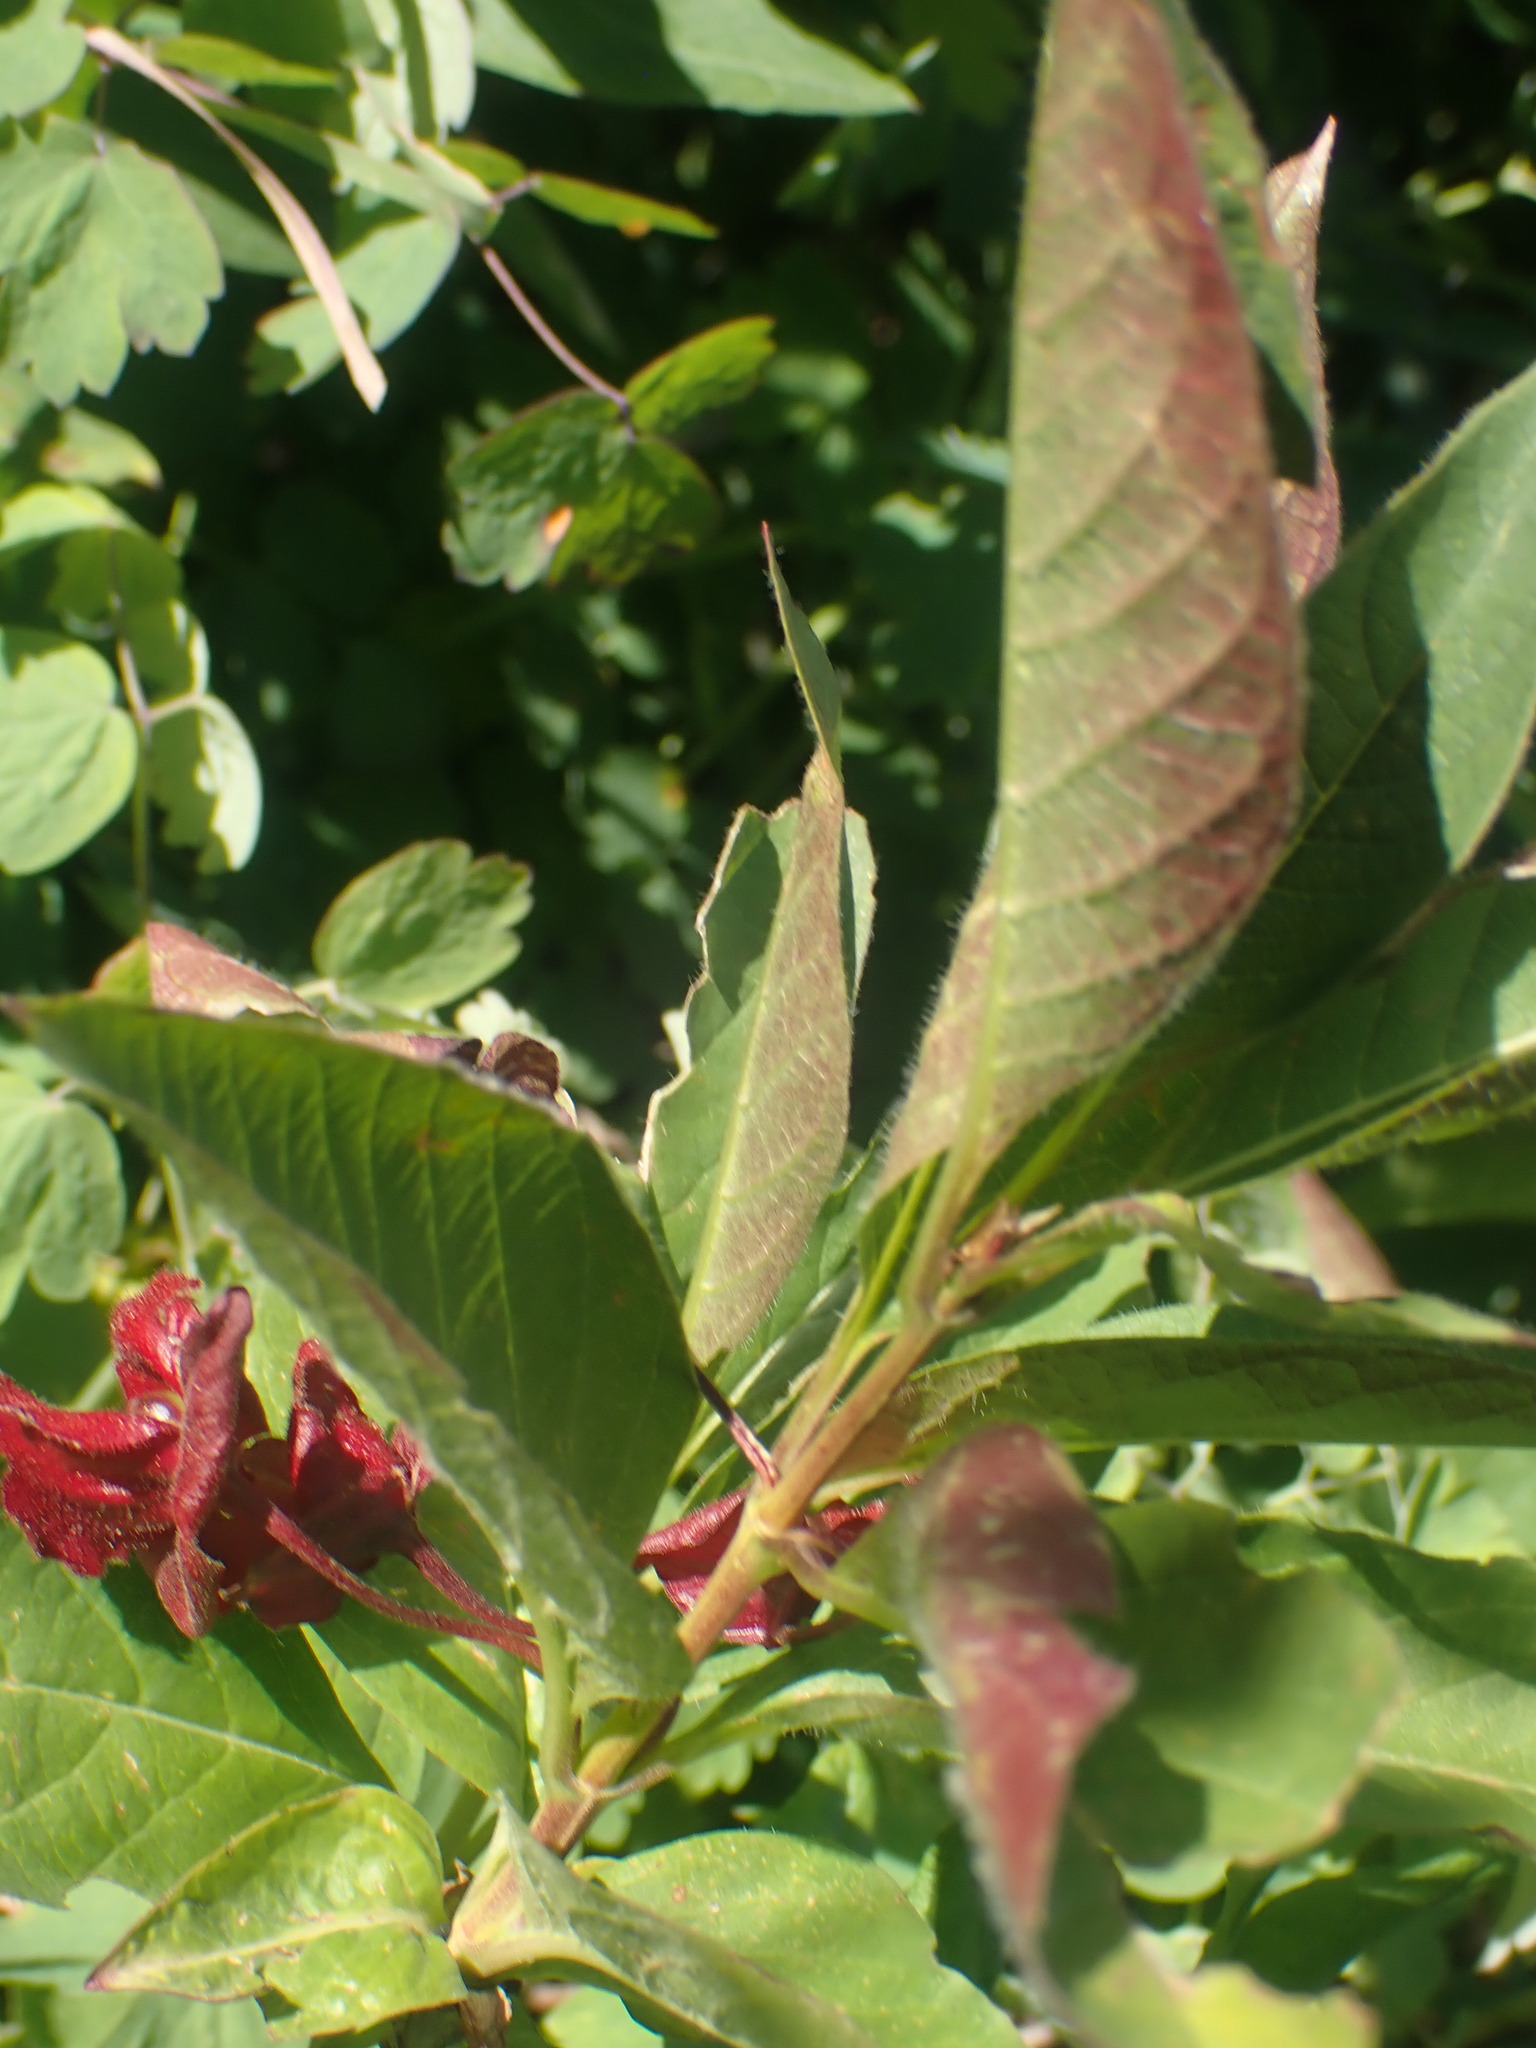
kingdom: Plantae
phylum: Tracheophyta
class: Magnoliopsida
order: Dipsacales
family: Caprifoliaceae
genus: Lonicera
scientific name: Lonicera involucrata
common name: Californian honeysuckle
